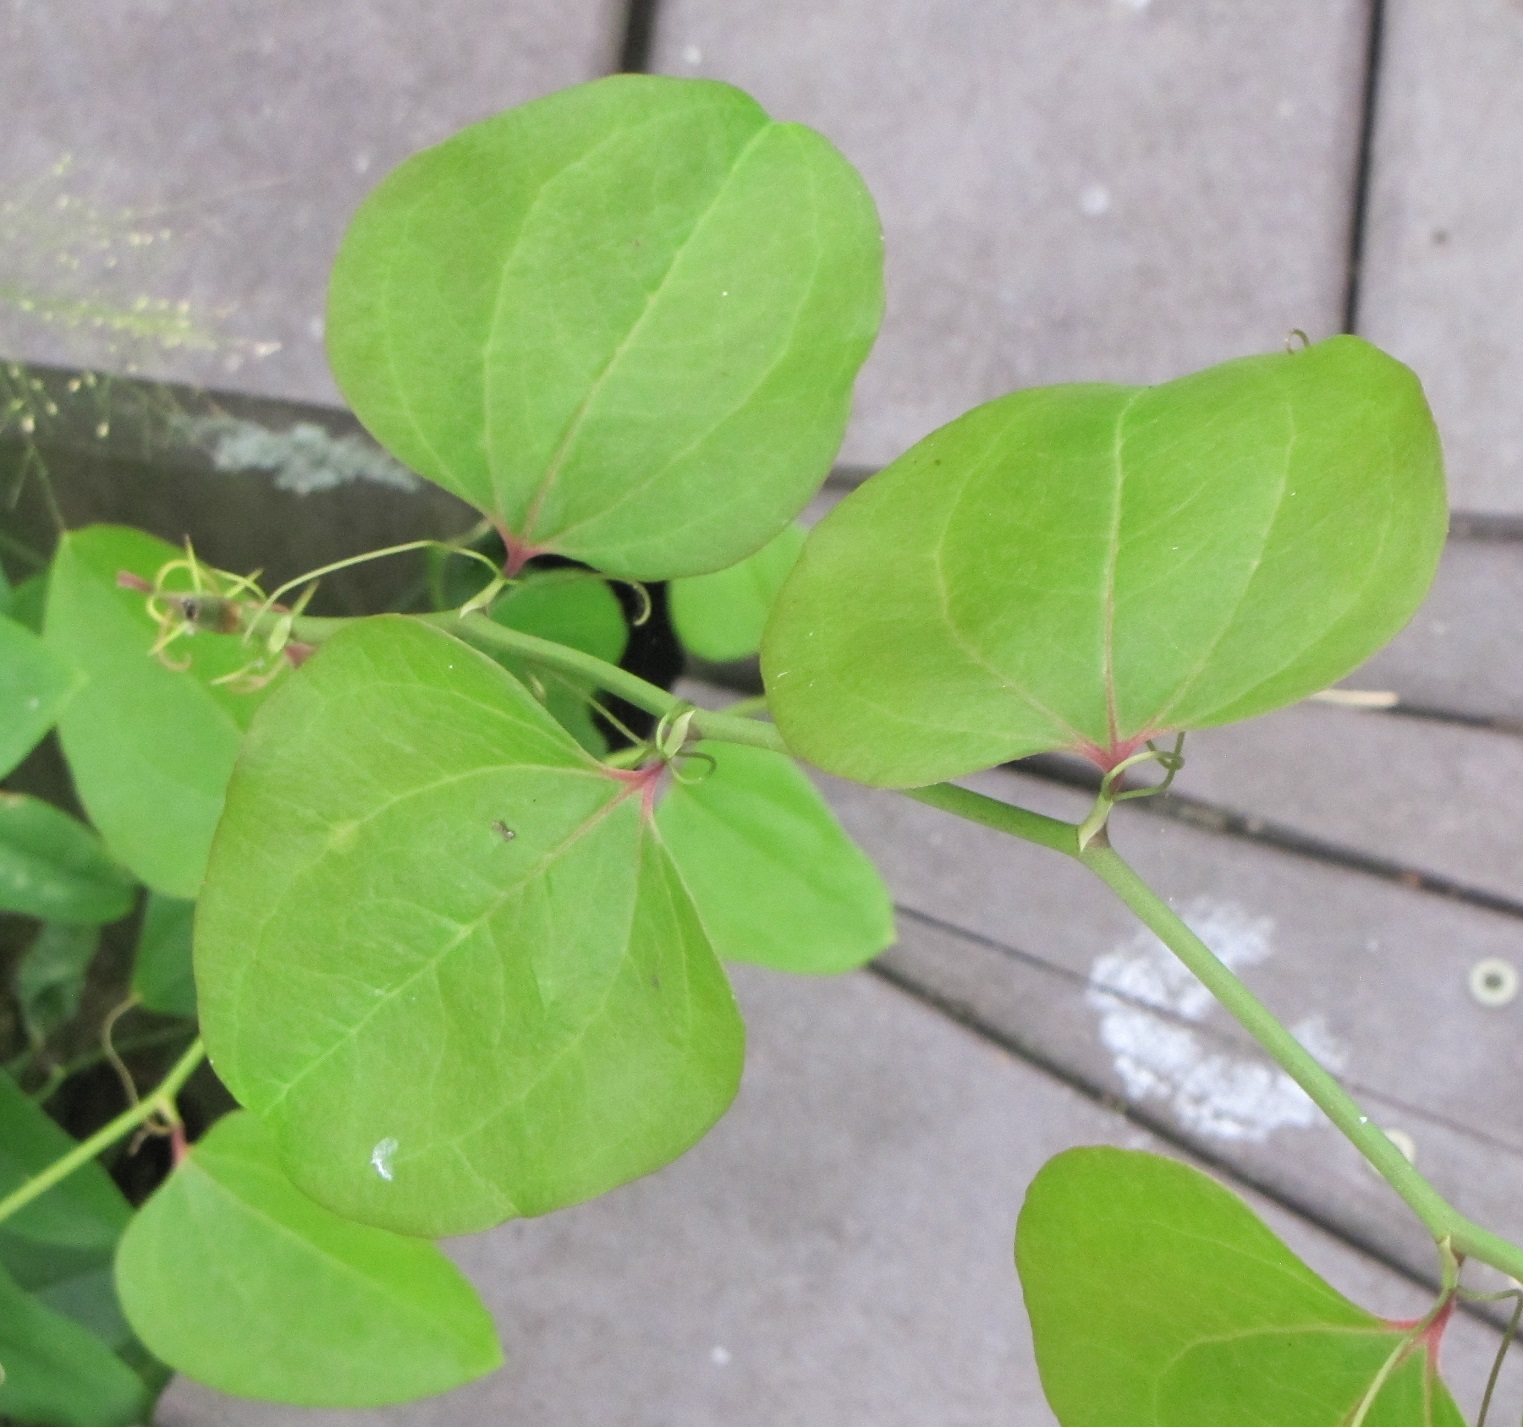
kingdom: Plantae
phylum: Tracheophyta
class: Liliopsida
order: Liliales
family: Smilacaceae
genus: Smilax
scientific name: Smilax rotundifolia
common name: Bullbriar
